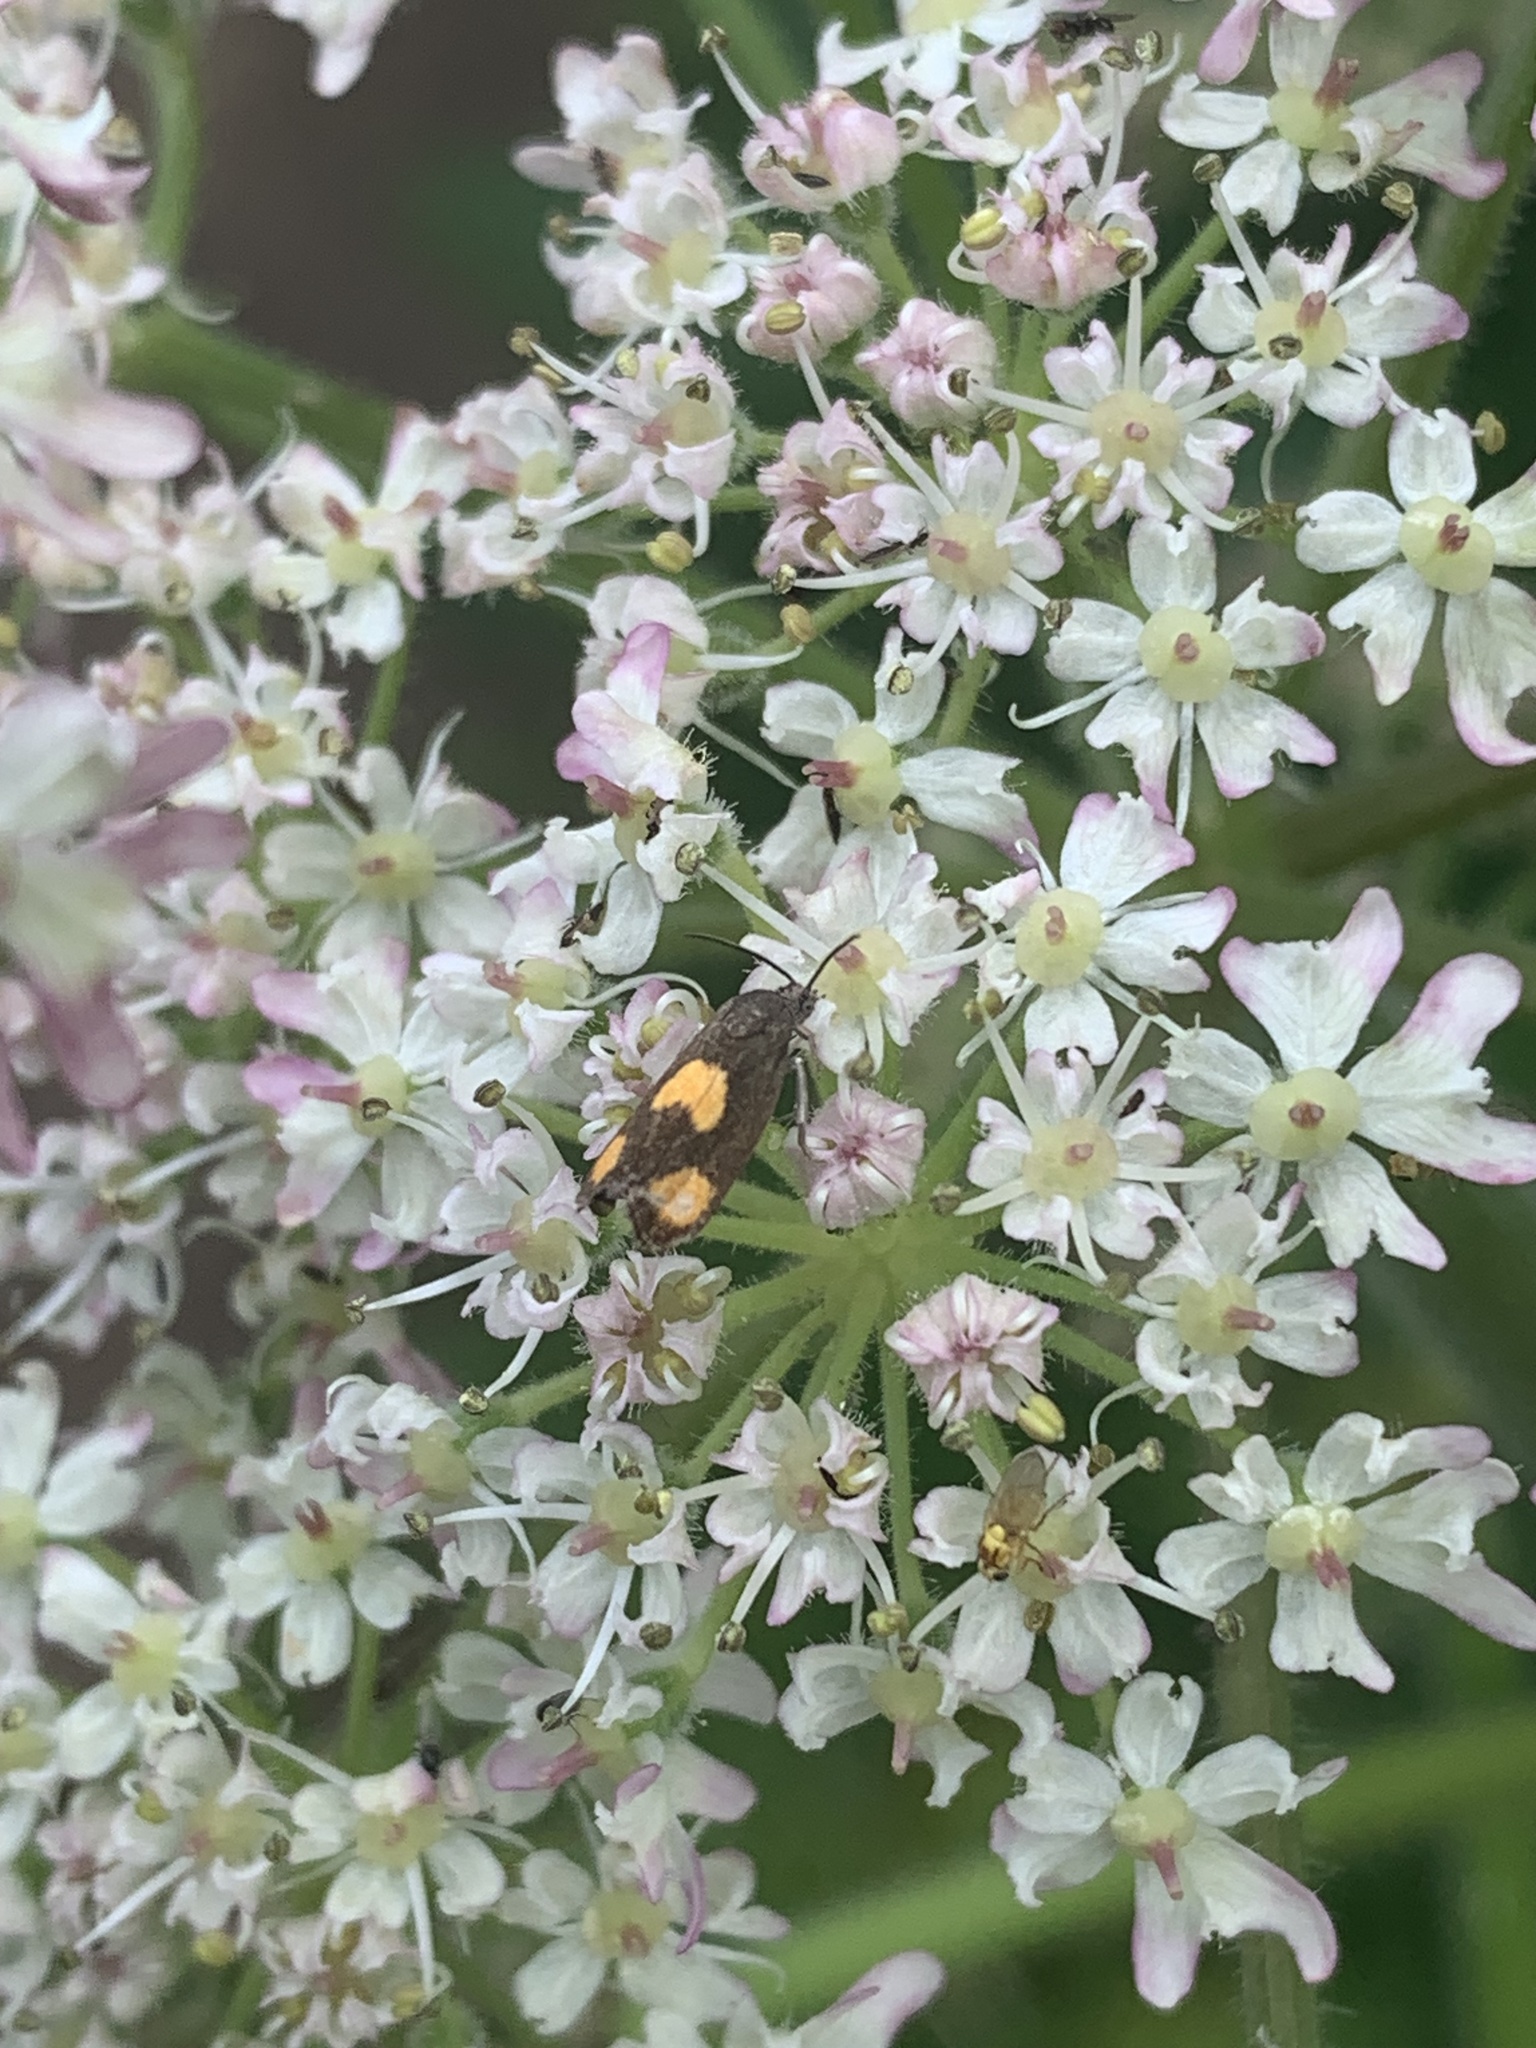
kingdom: Animalia
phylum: Arthropoda
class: Insecta
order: Lepidoptera
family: Tortricidae
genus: Pammene
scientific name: Pammene aurana
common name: Orange-spot piercer
